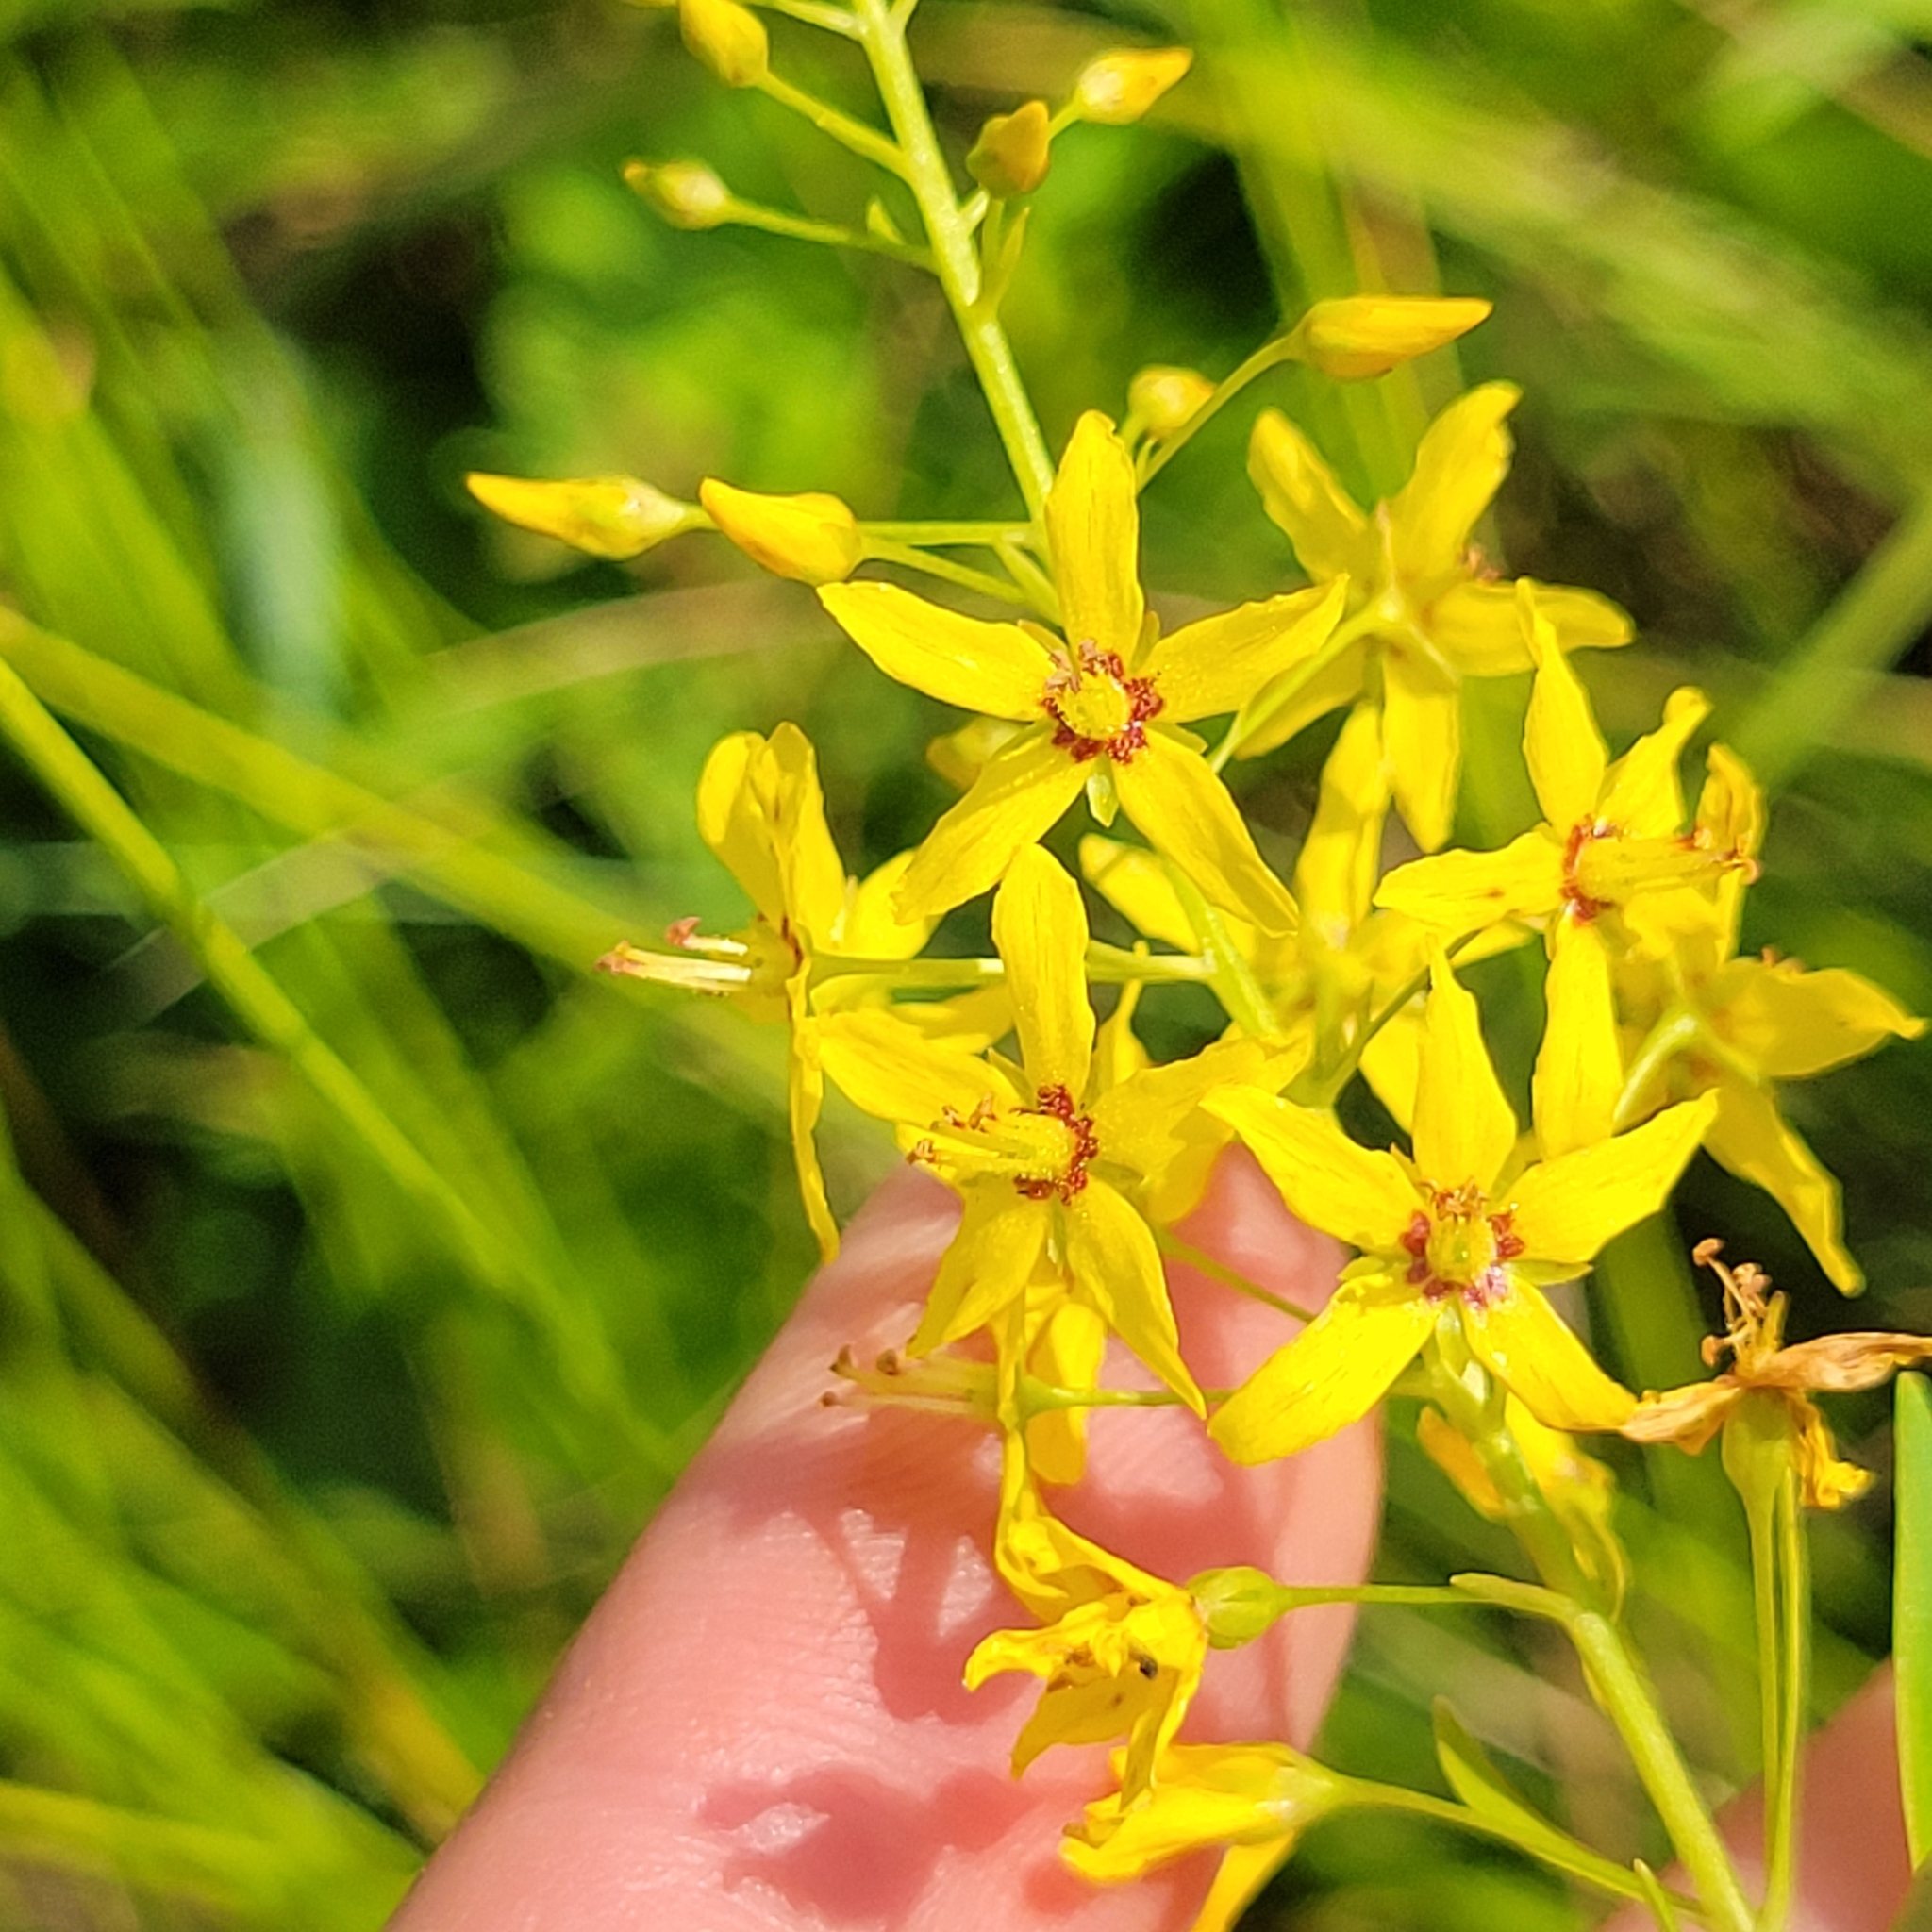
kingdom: Plantae
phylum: Tracheophyta
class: Magnoliopsida
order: Ericales
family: Primulaceae
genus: Lysimachia
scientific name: Lysimachia terrestris
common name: Lake loosestrife
